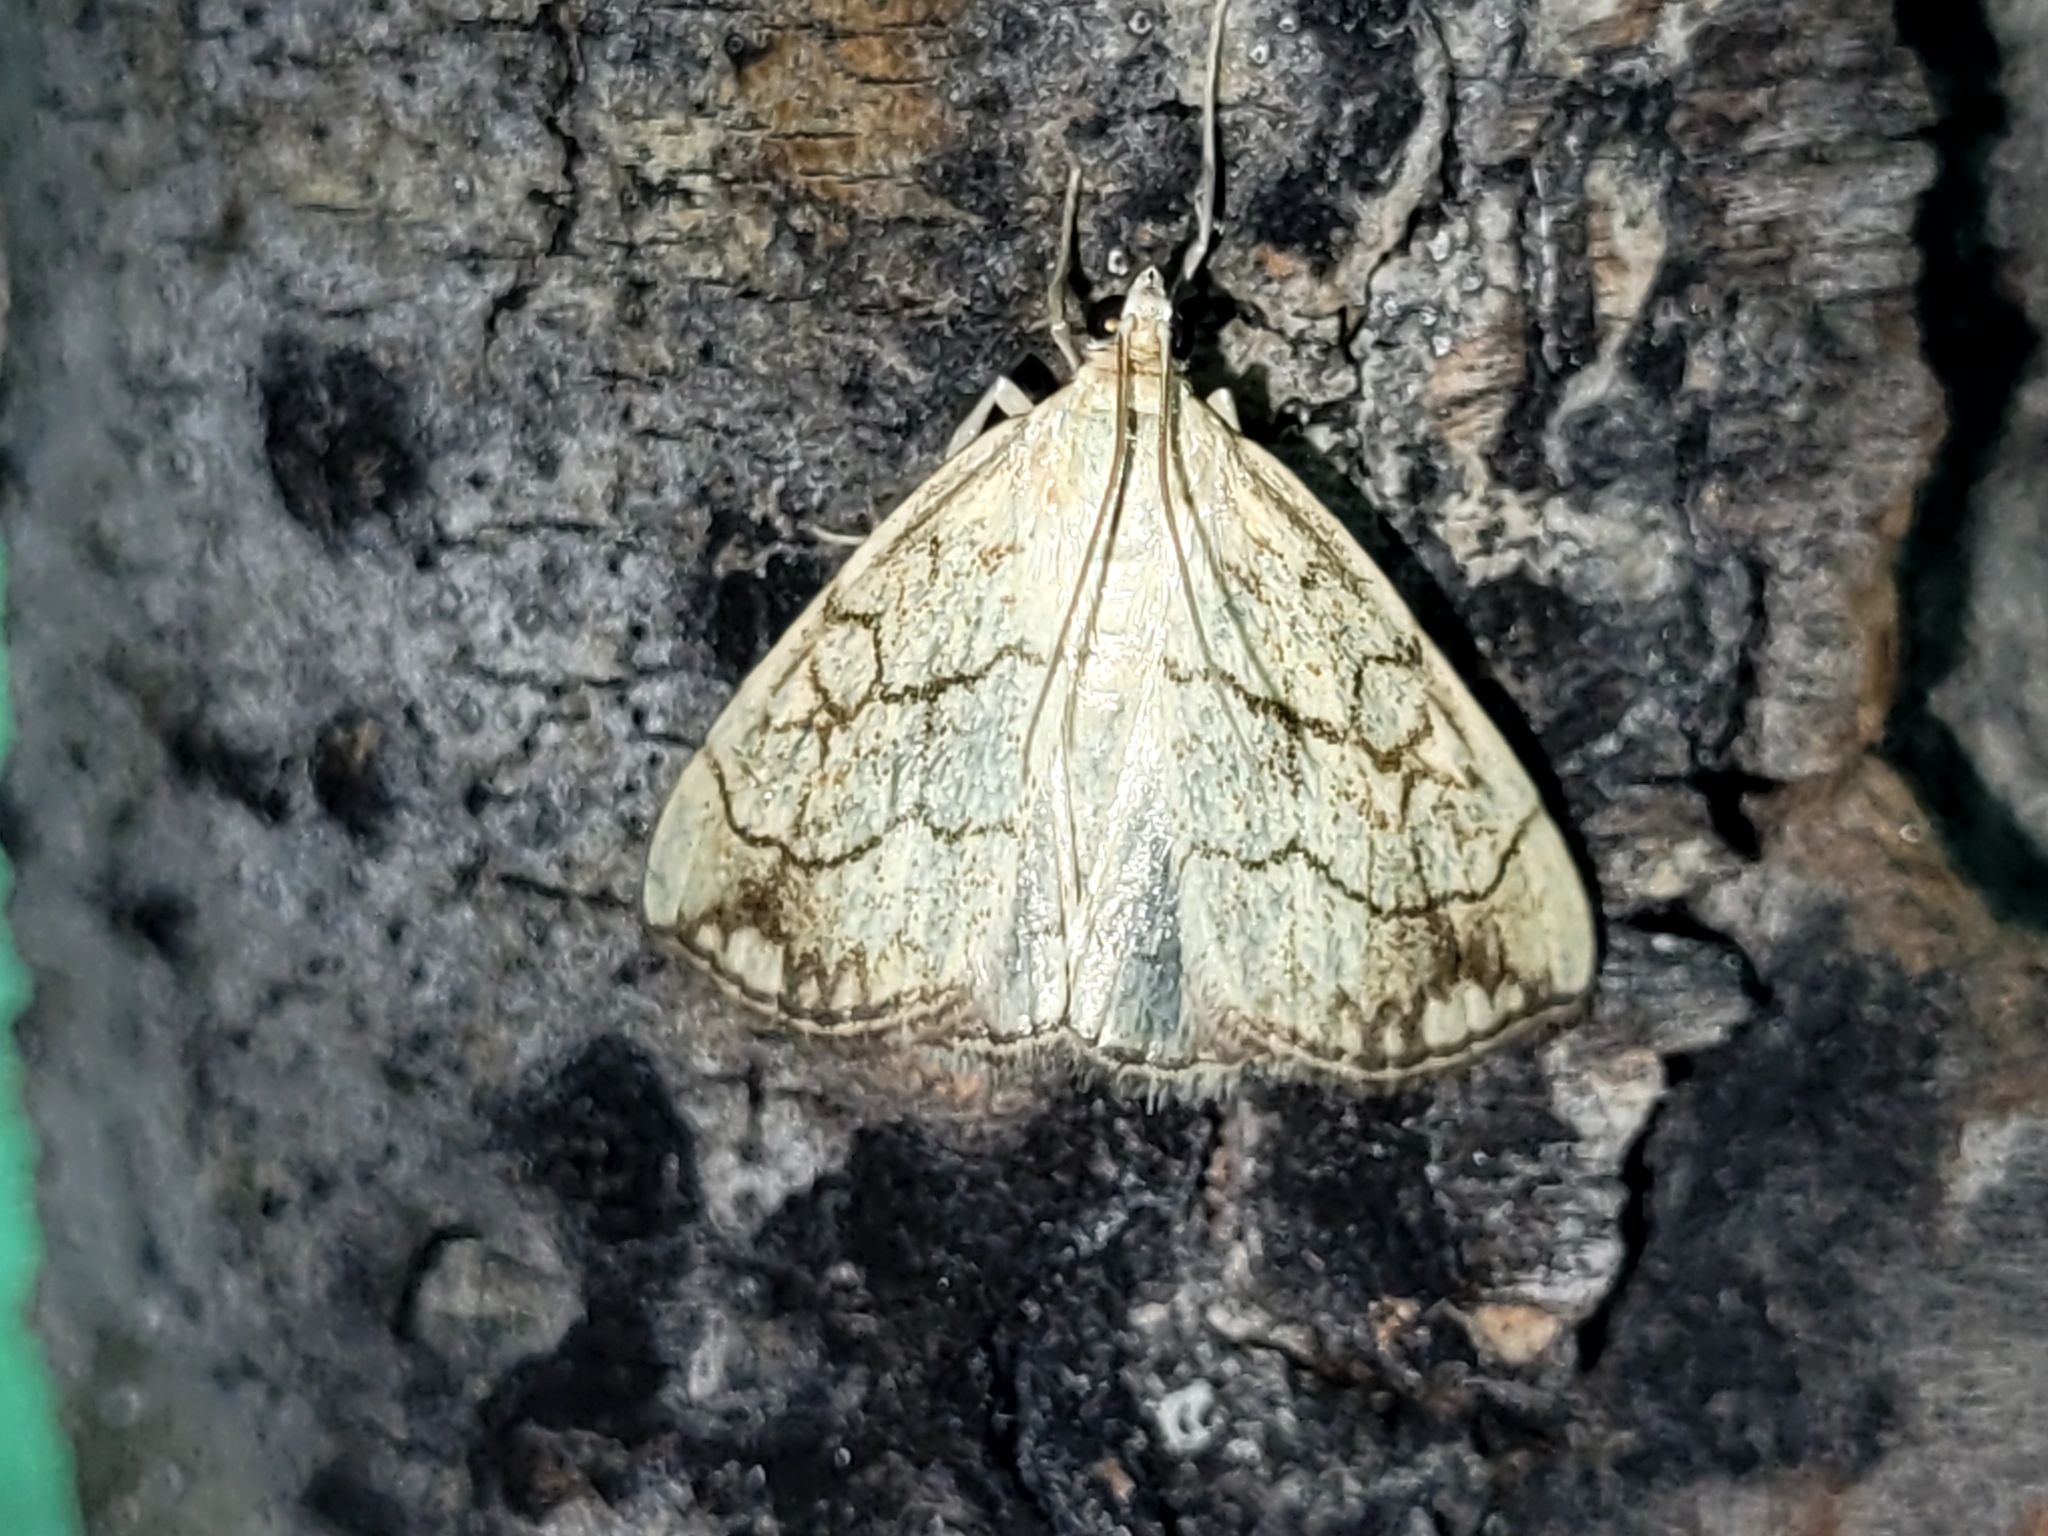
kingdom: Animalia
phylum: Arthropoda
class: Insecta
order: Lepidoptera
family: Crambidae
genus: Evergestis
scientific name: Evergestis pallidata
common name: Chequered pearl
